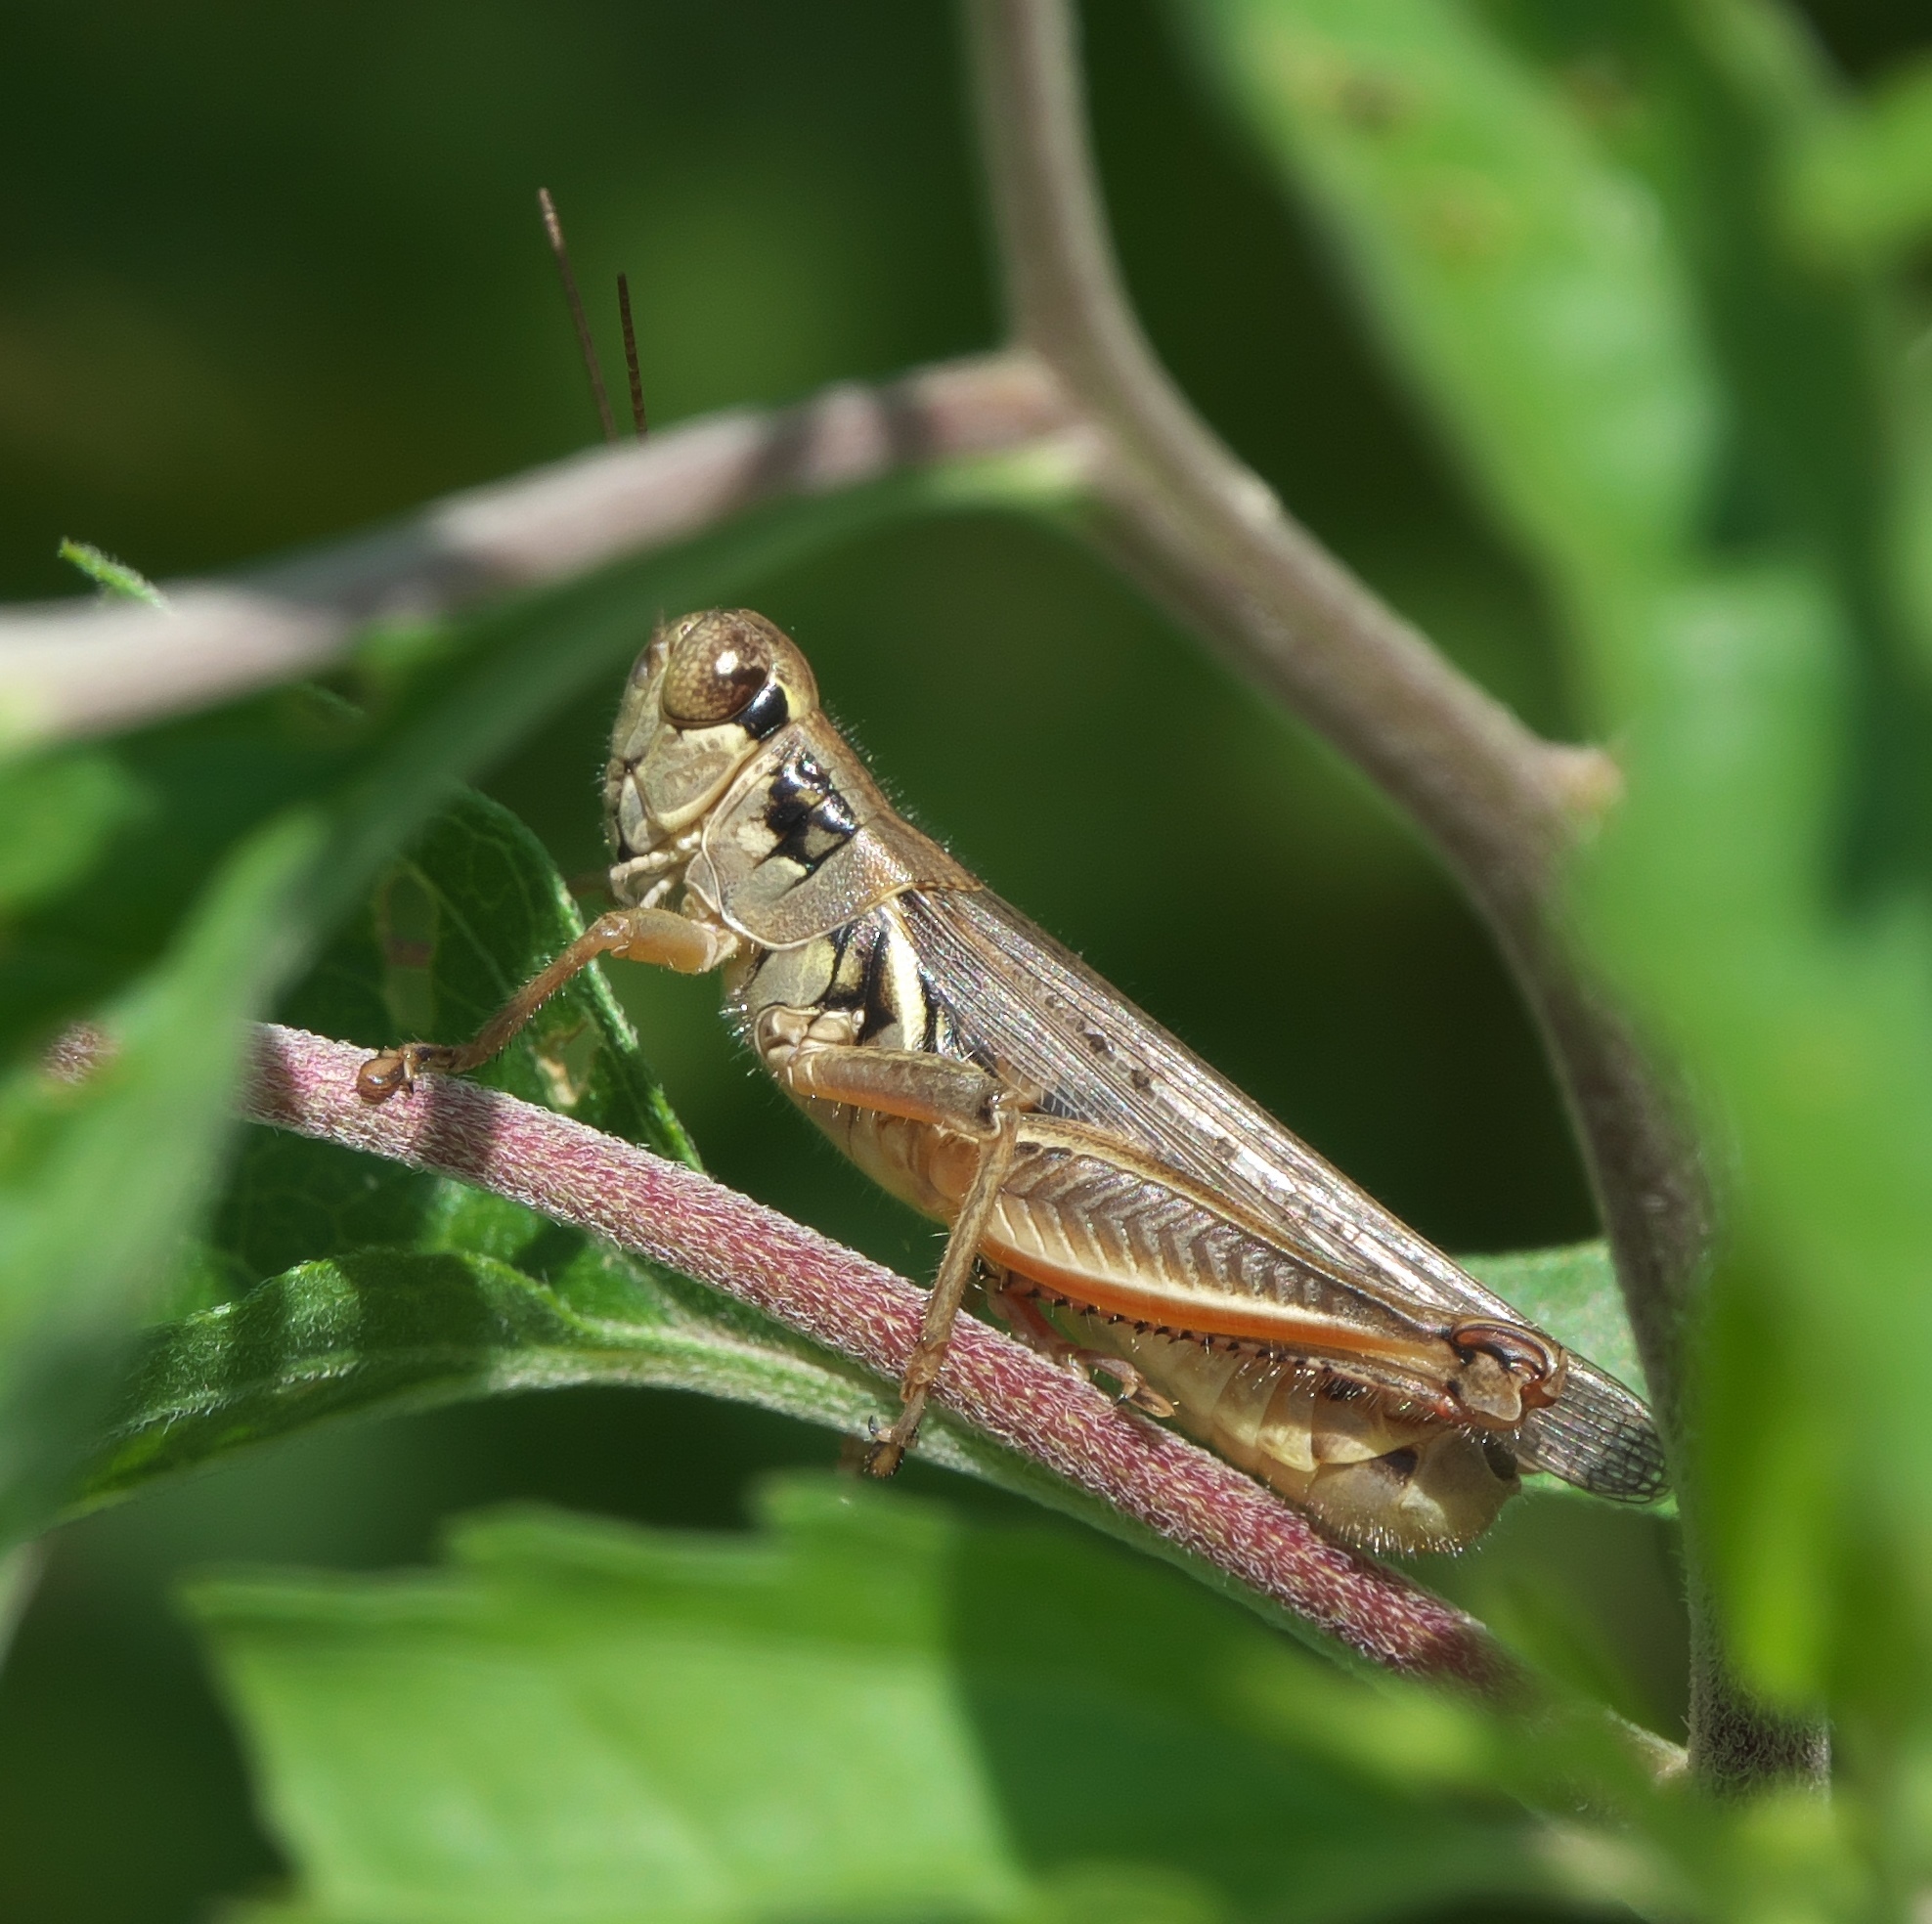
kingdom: Animalia
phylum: Arthropoda
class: Insecta
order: Orthoptera
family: Acrididae
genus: Melanoplus
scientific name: Melanoplus femurrubrum
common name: Red-legged grasshopper
